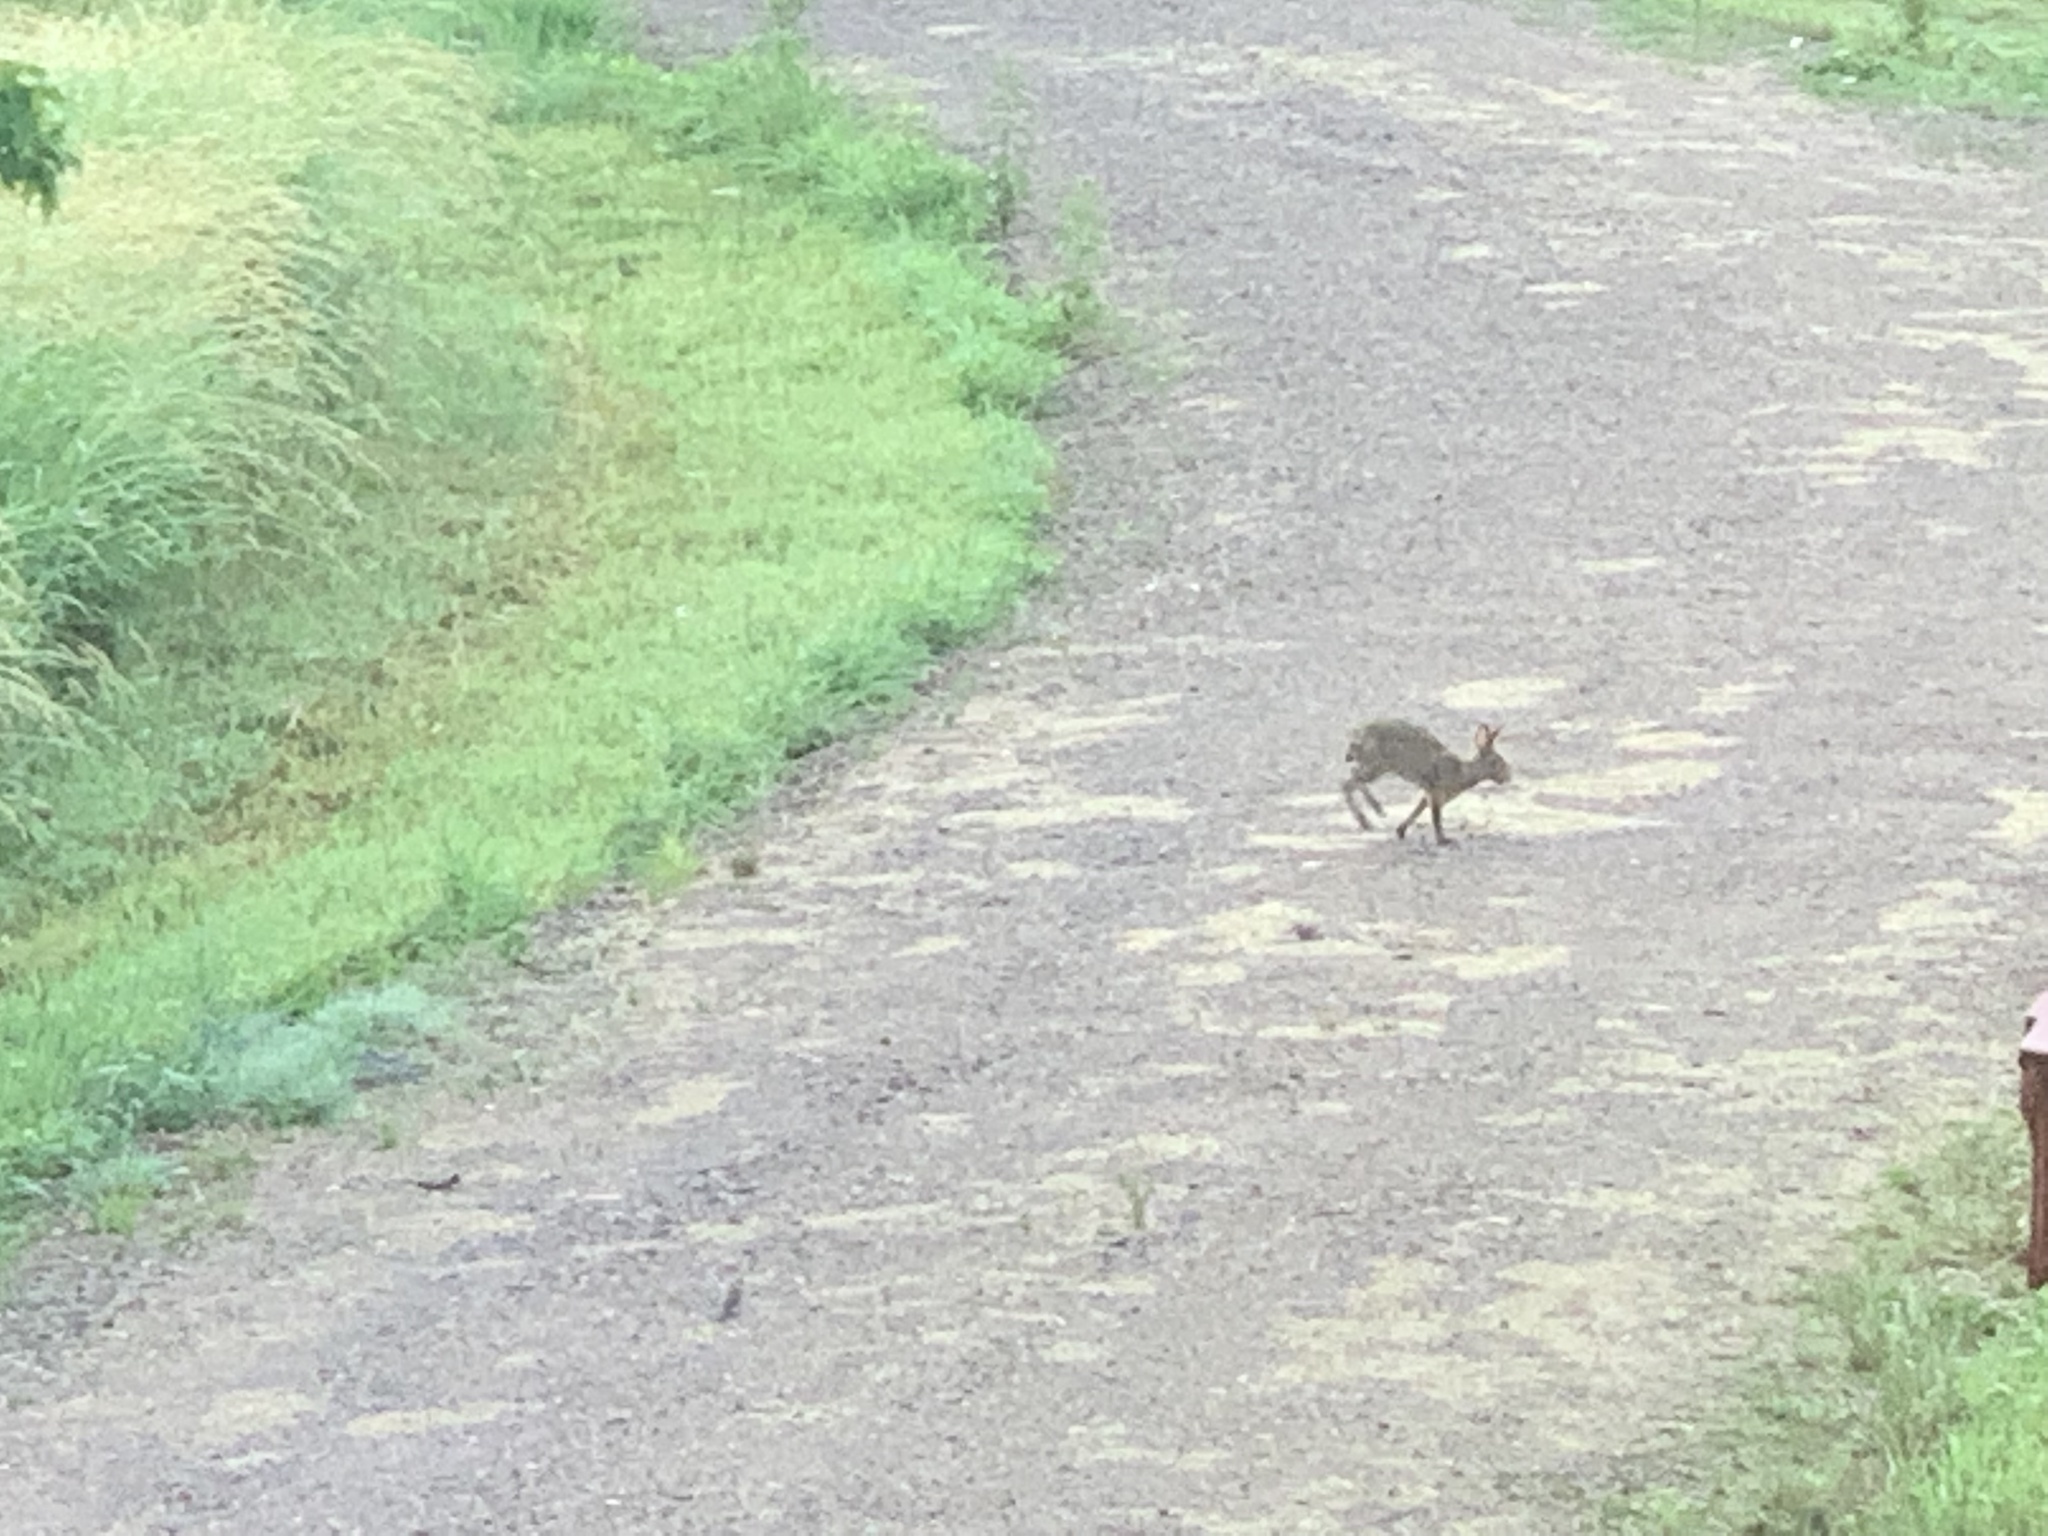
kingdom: Animalia
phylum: Chordata
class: Mammalia
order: Lagomorpha
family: Leporidae
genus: Sylvilagus
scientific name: Sylvilagus floridanus
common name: Eastern cottontail
